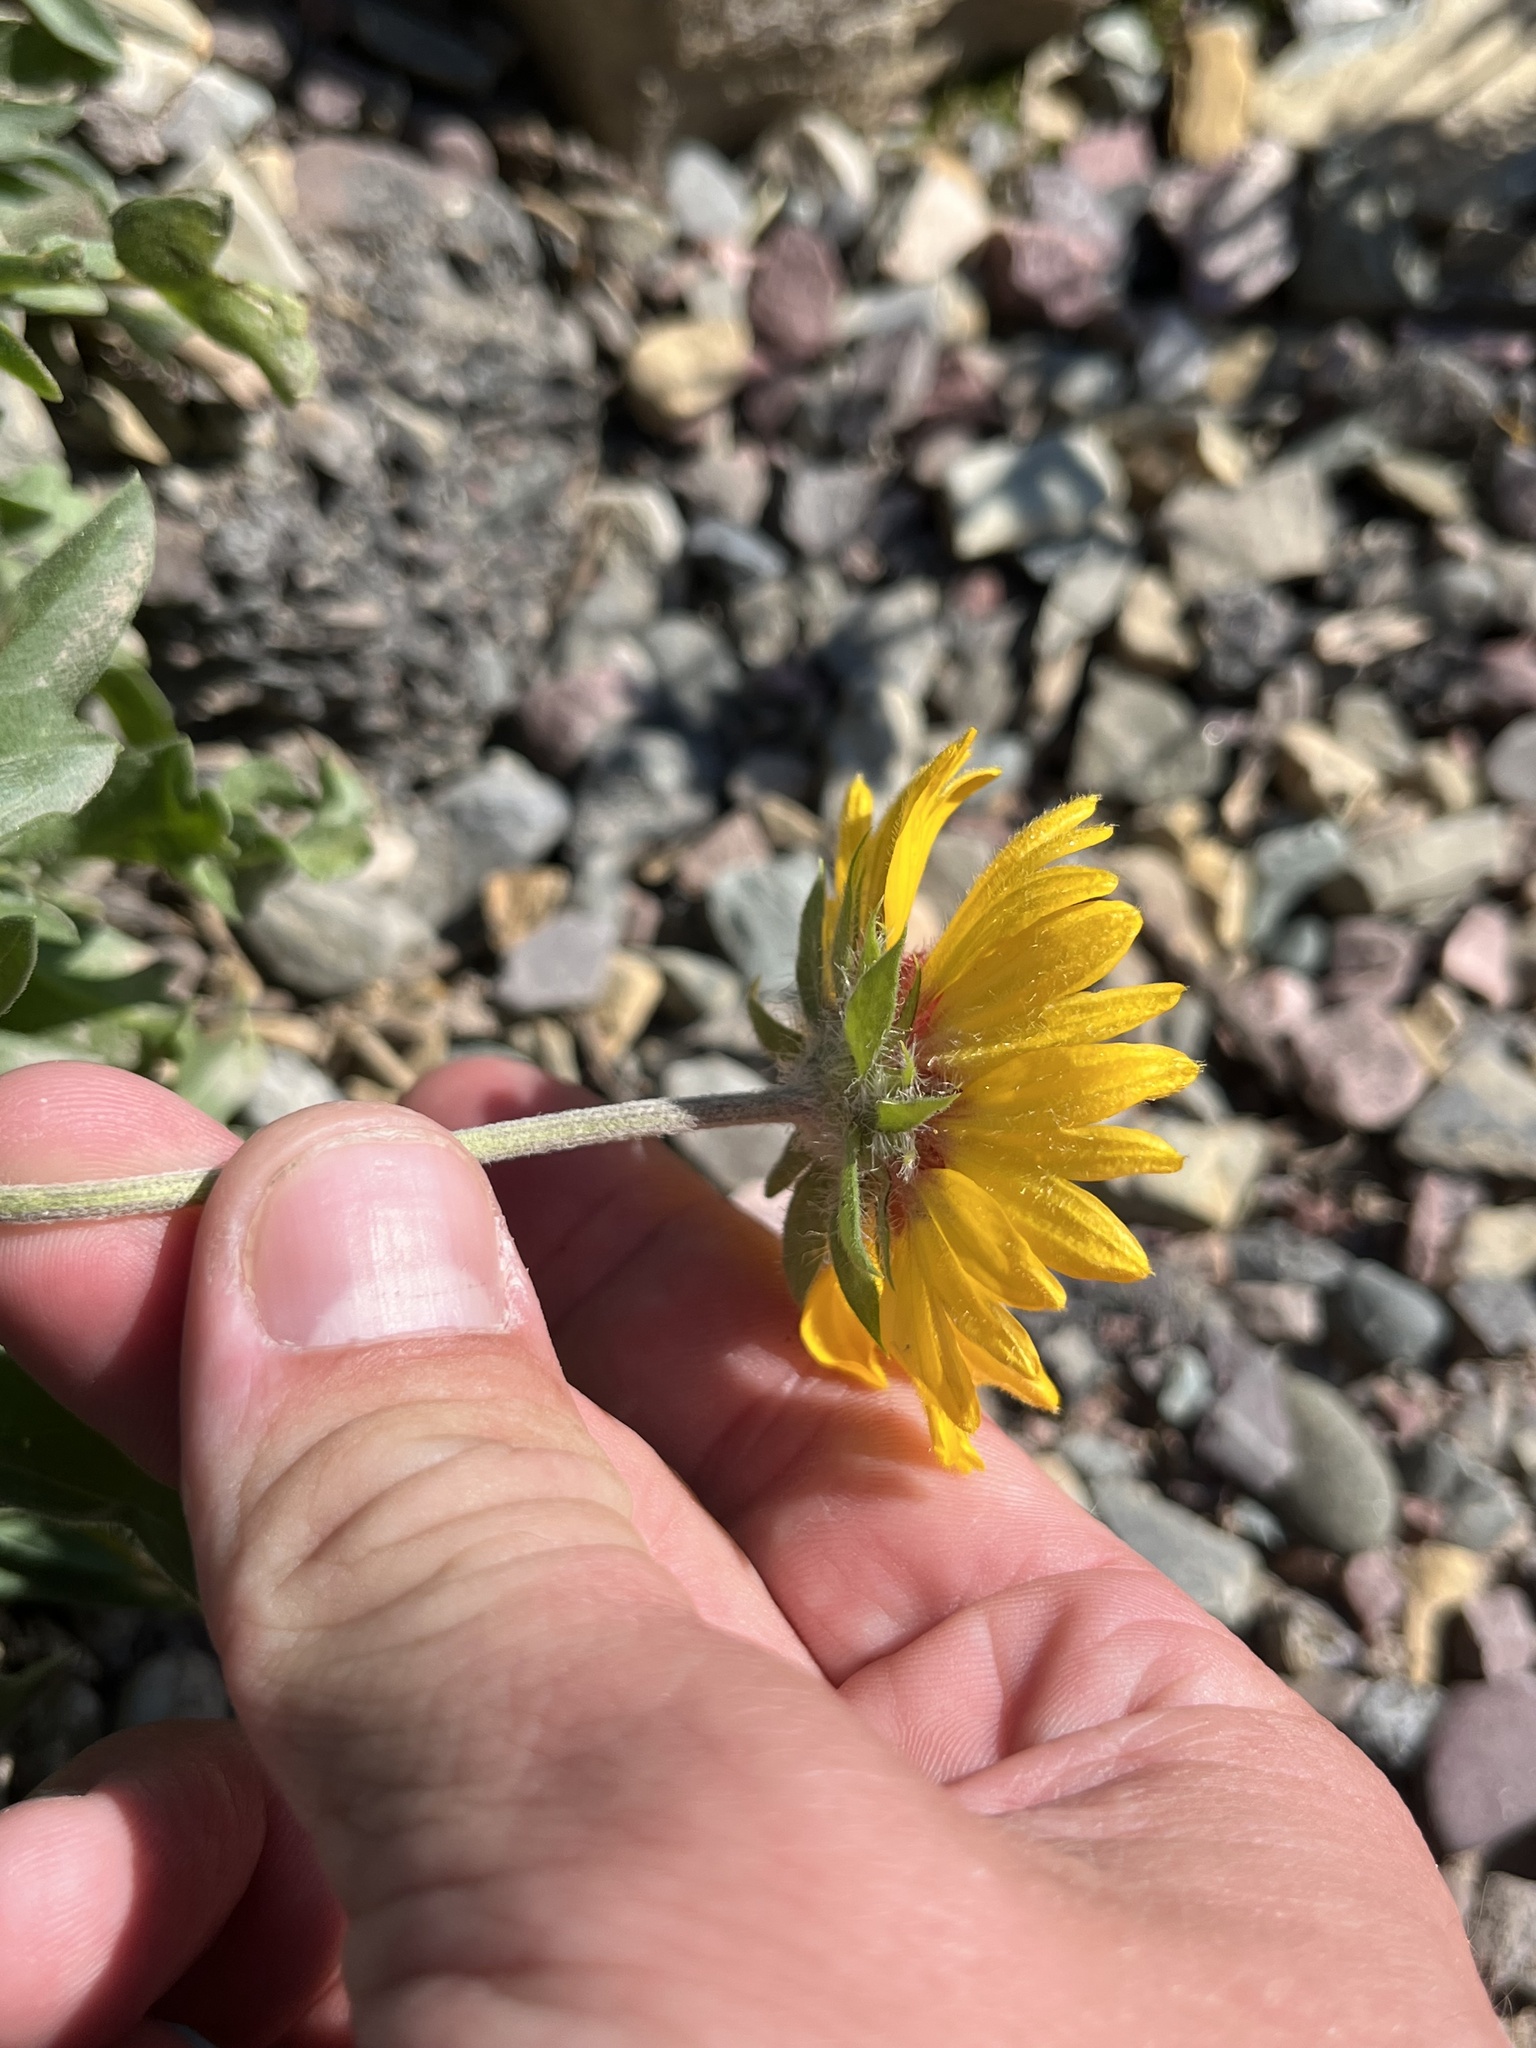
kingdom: Plantae
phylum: Tracheophyta
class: Magnoliopsida
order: Asterales
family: Asteraceae
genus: Gaillardia
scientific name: Gaillardia aristata
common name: Blanket-flower
